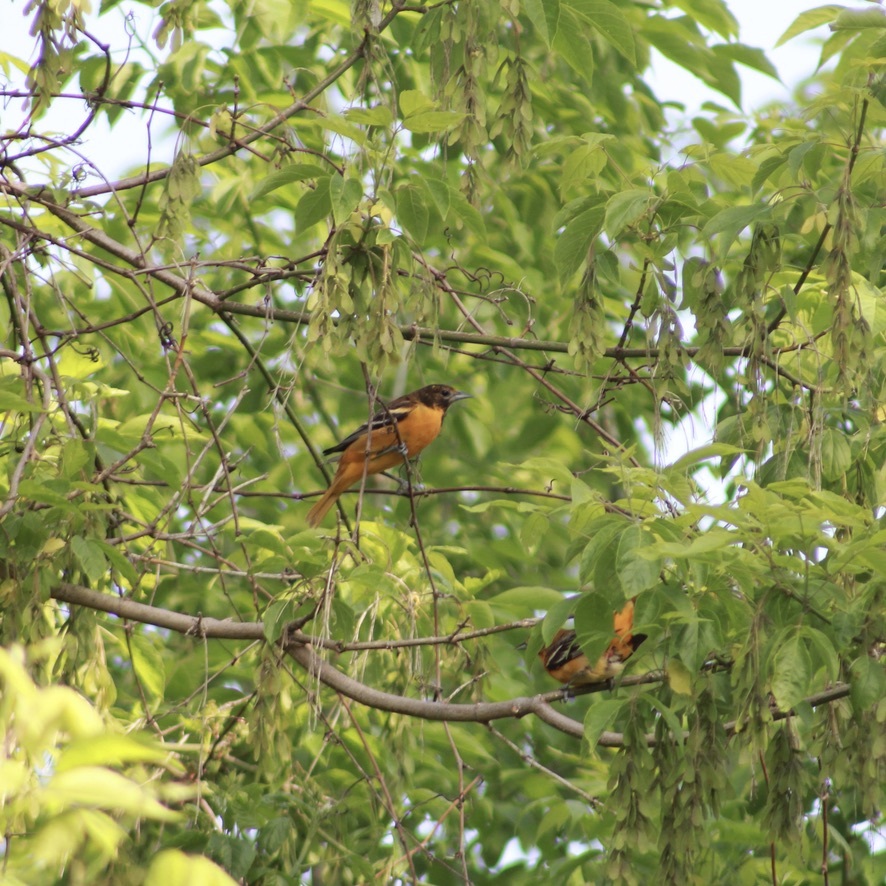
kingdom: Animalia
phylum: Chordata
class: Aves
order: Passeriformes
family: Icteridae
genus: Icterus
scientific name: Icterus galbula
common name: Baltimore oriole
